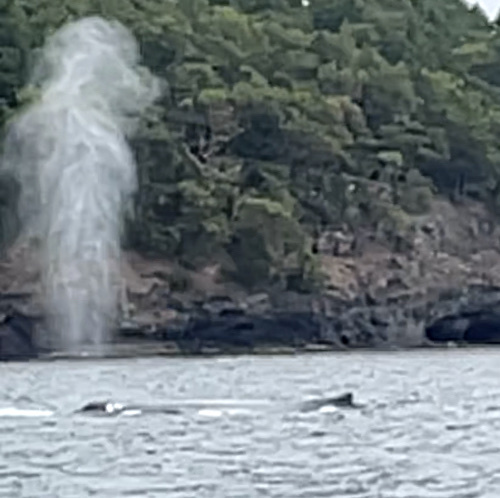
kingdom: Animalia
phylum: Chordata
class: Mammalia
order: Cetacea
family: Balaenopteridae
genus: Megaptera
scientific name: Megaptera novaeangliae
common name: Humpback whale
